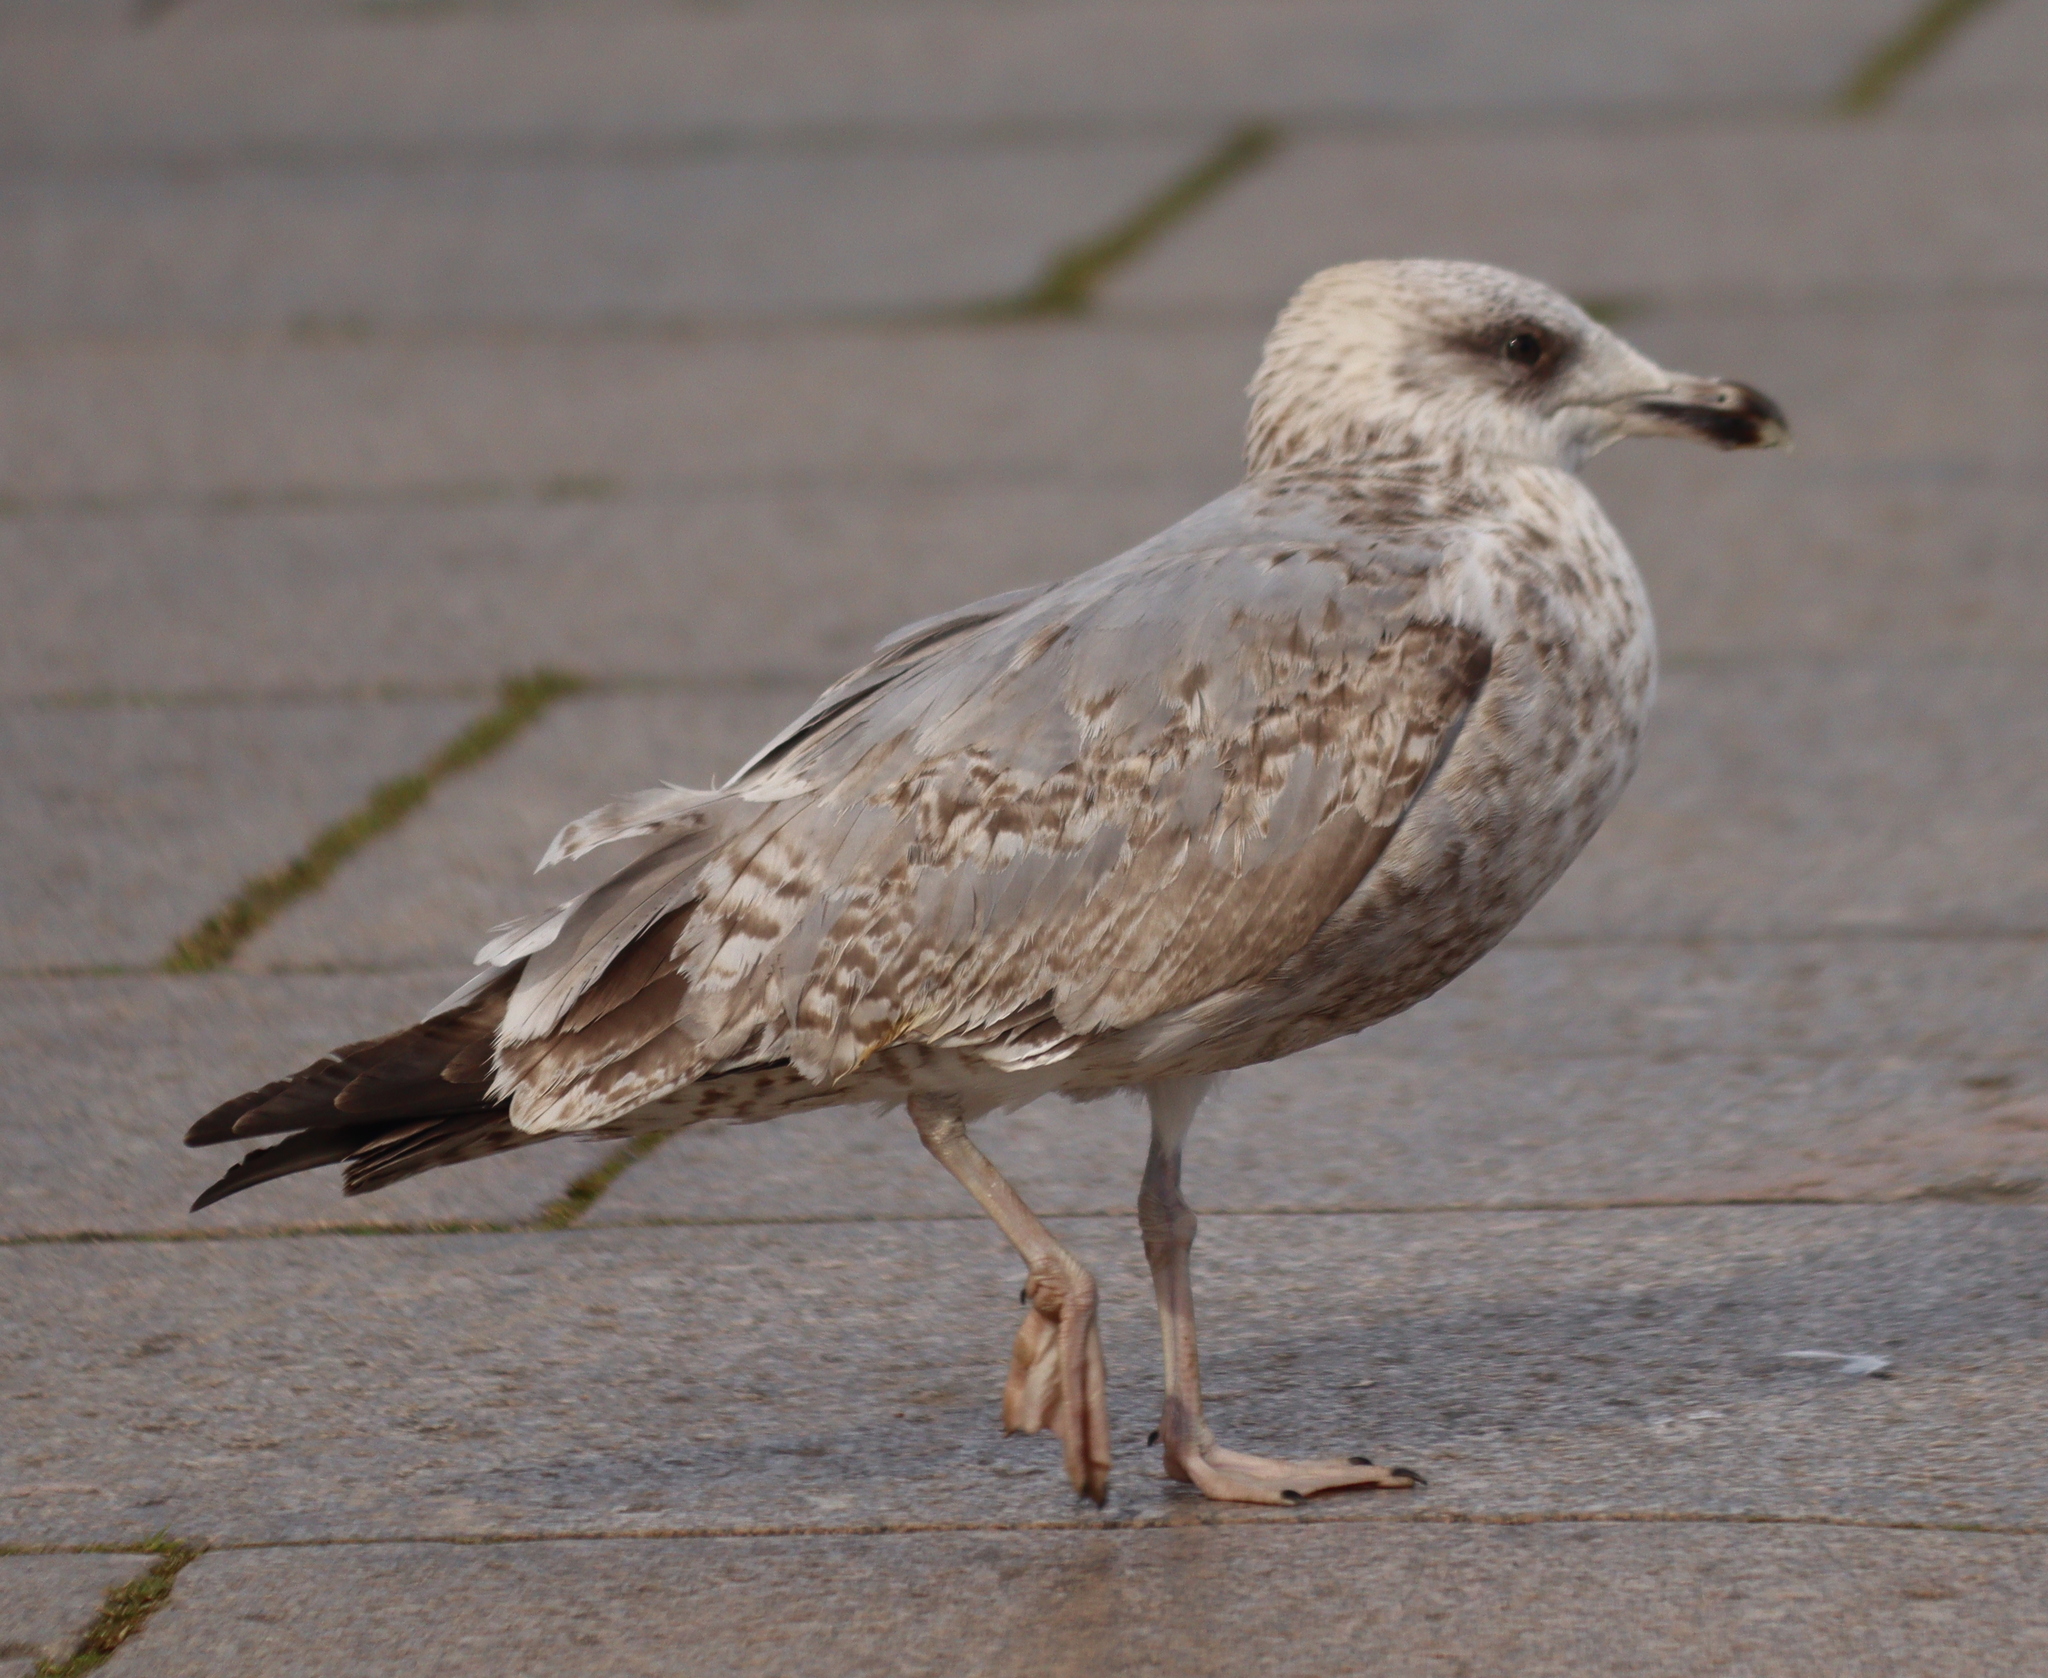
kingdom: Animalia
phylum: Chordata
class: Aves
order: Charadriiformes
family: Laridae
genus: Larus
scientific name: Larus argentatus
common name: Herring gull
